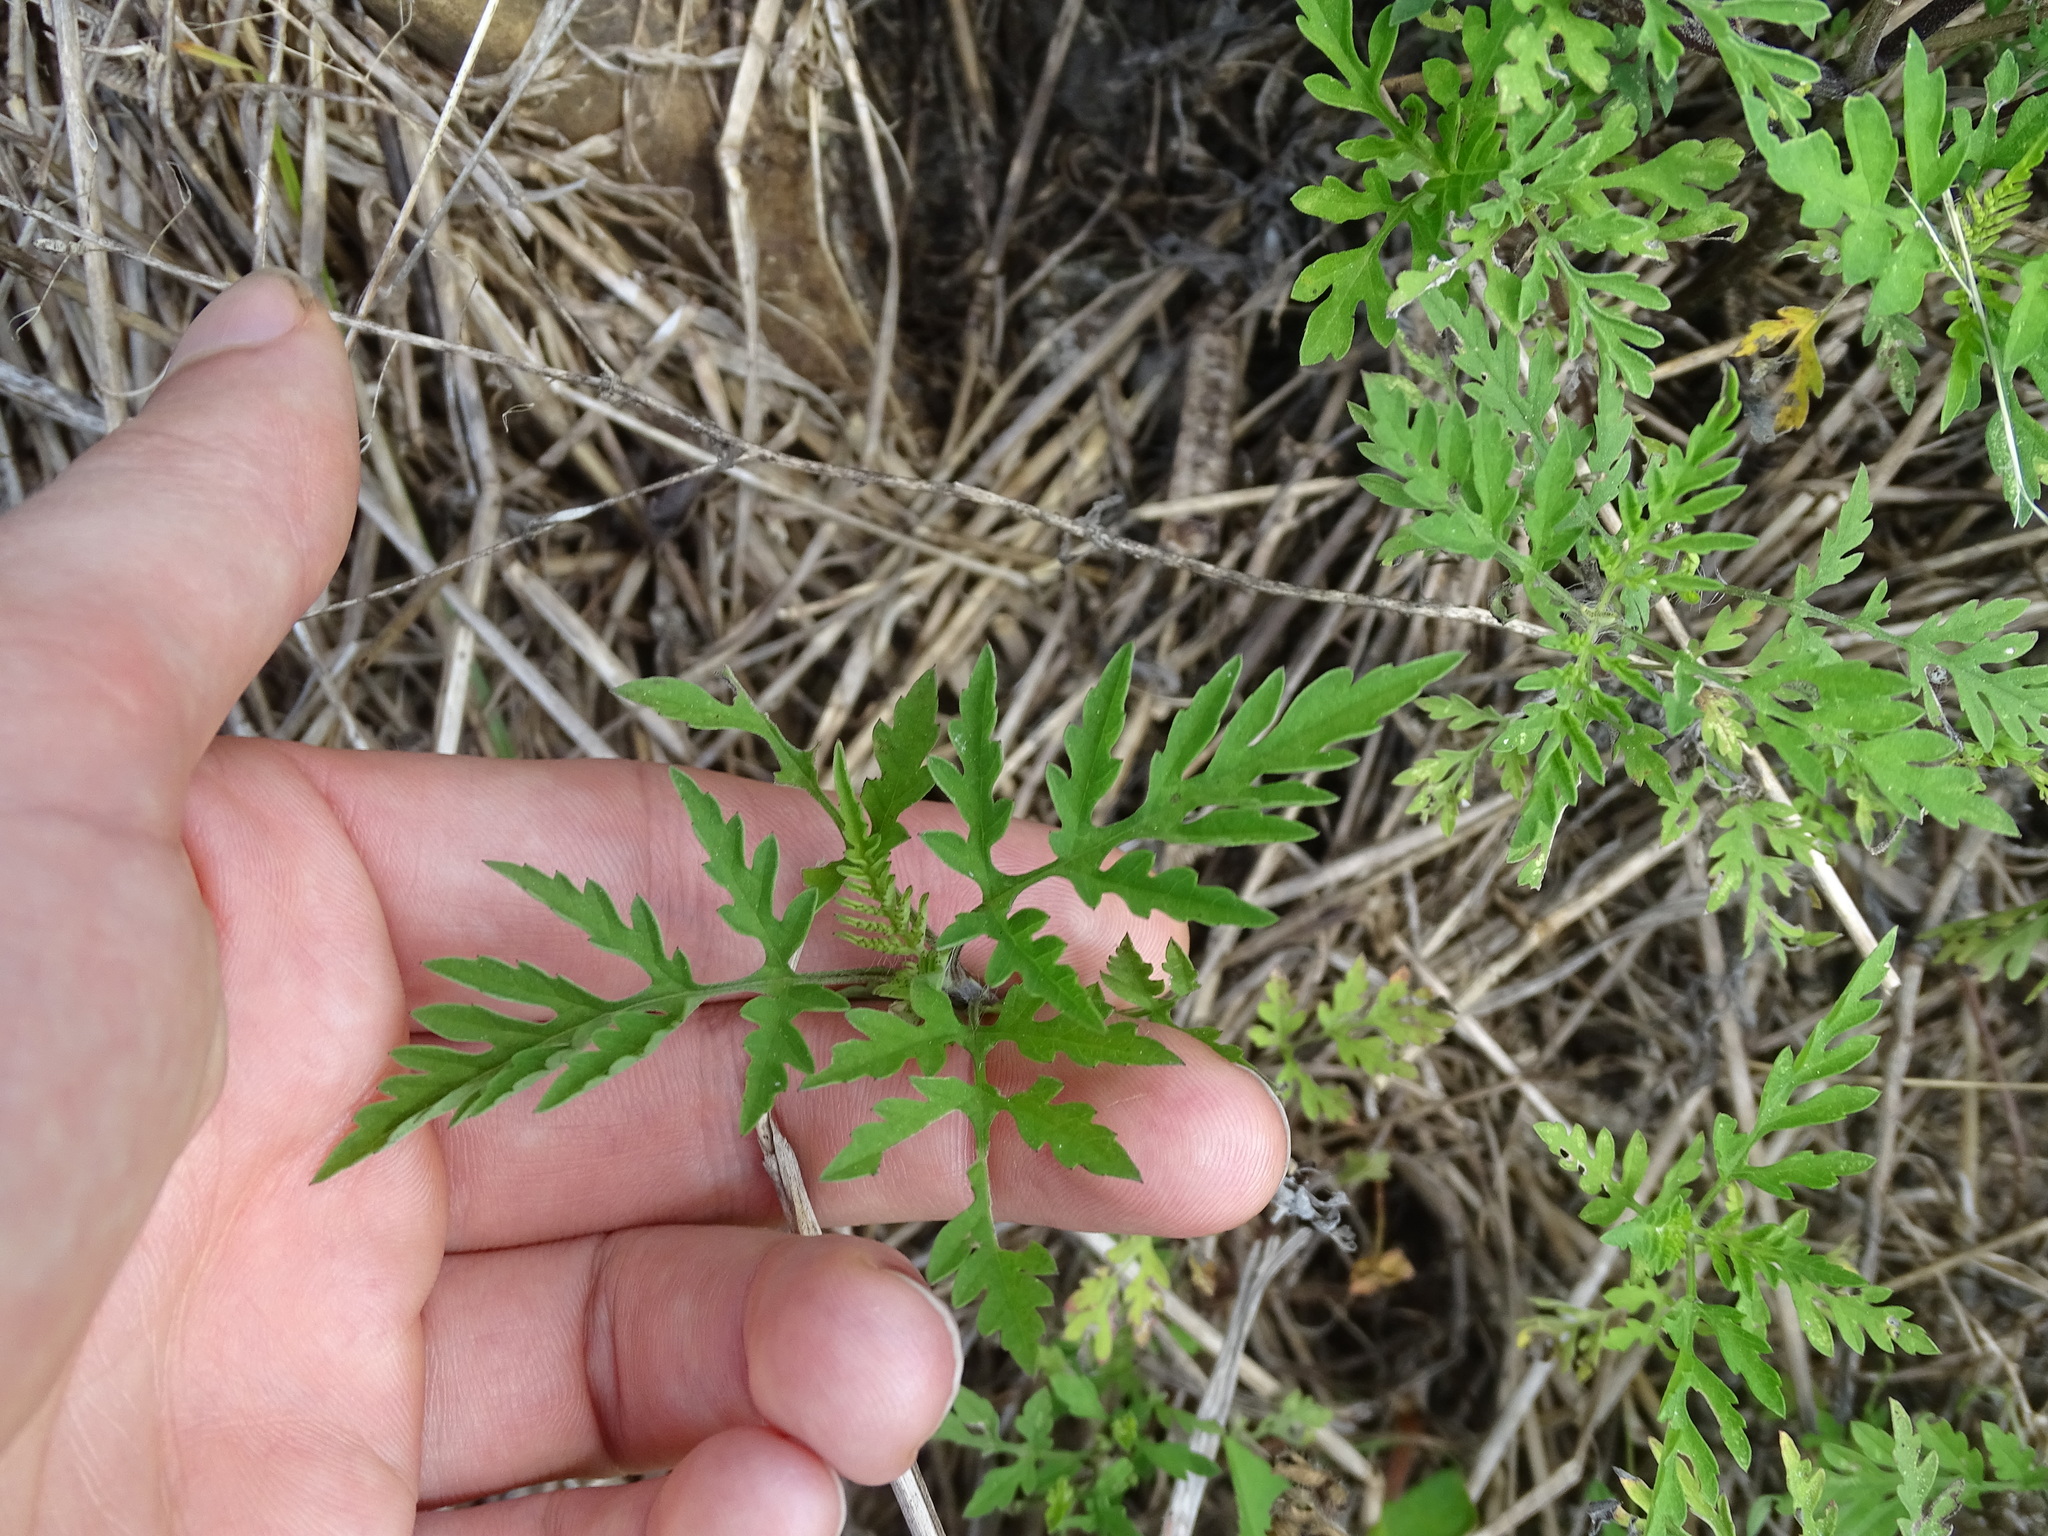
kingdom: Plantae
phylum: Tracheophyta
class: Magnoliopsida
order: Asterales
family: Asteraceae
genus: Ambrosia
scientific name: Ambrosia artemisiifolia
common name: Annual ragweed
